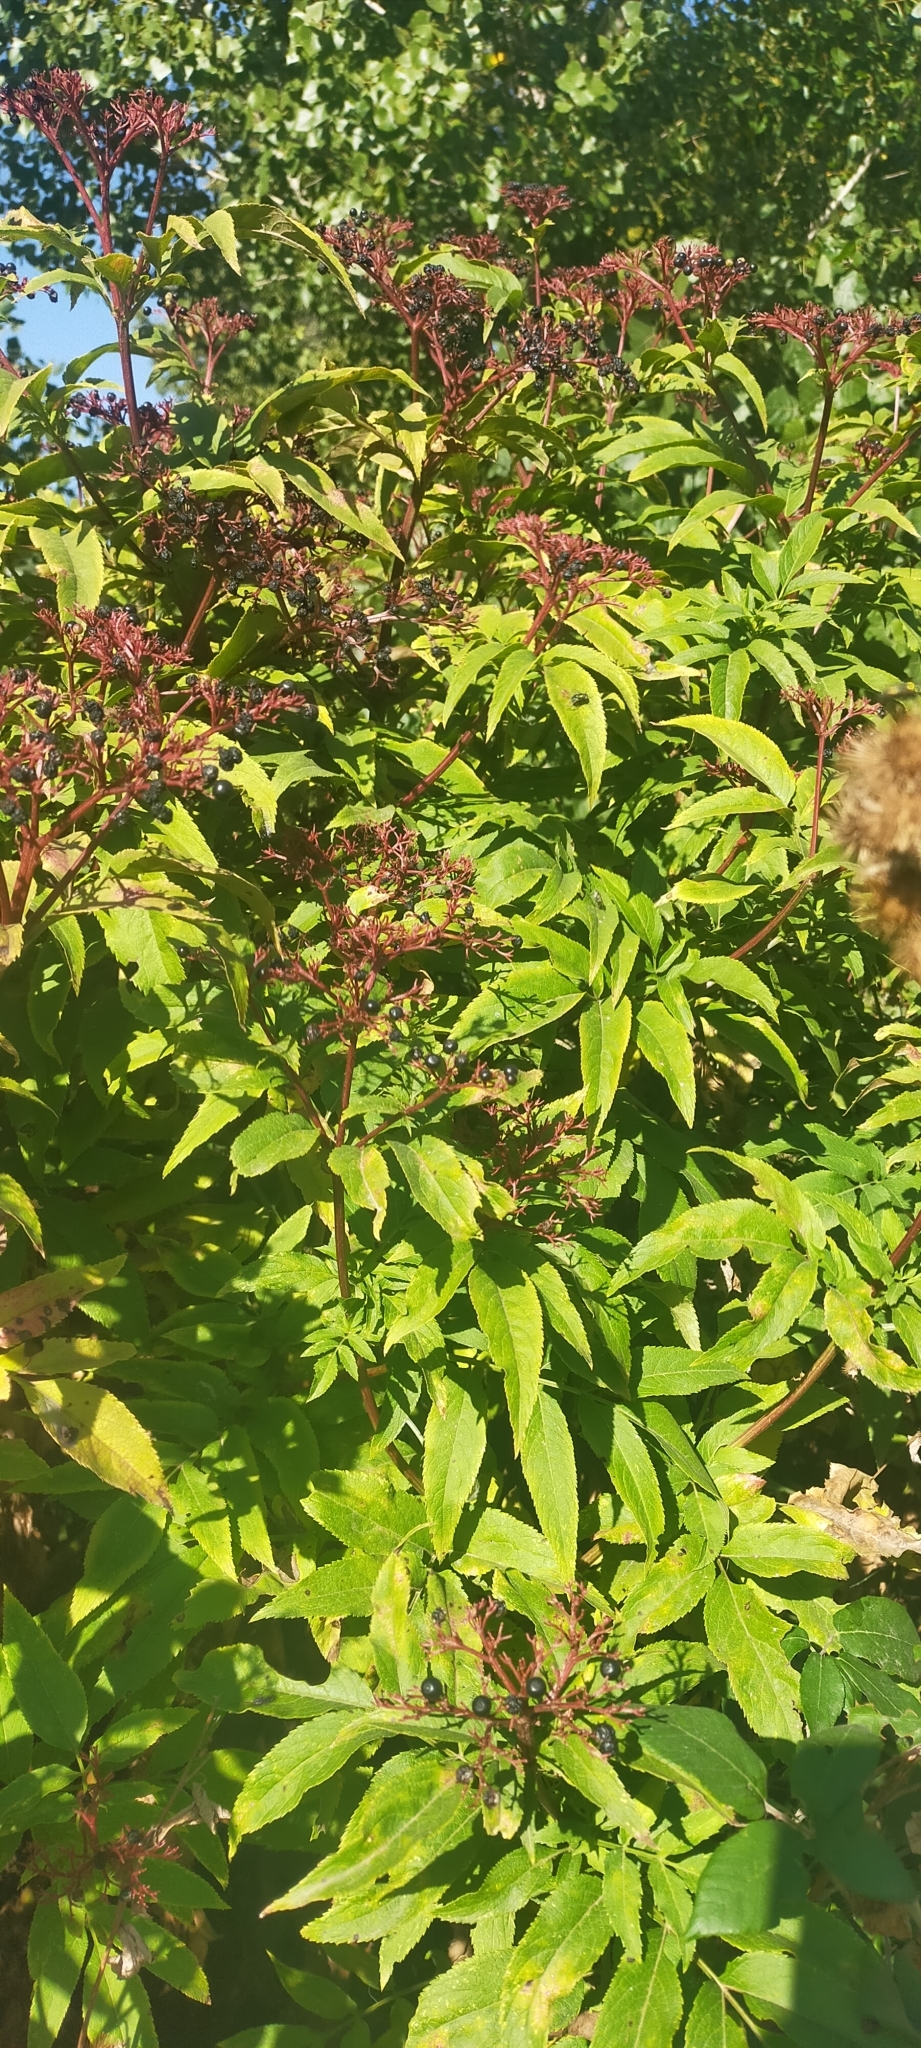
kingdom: Plantae
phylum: Tracheophyta
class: Magnoliopsida
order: Dipsacales
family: Viburnaceae
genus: Sambucus
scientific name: Sambucus ebulus
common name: Dwarf elder
